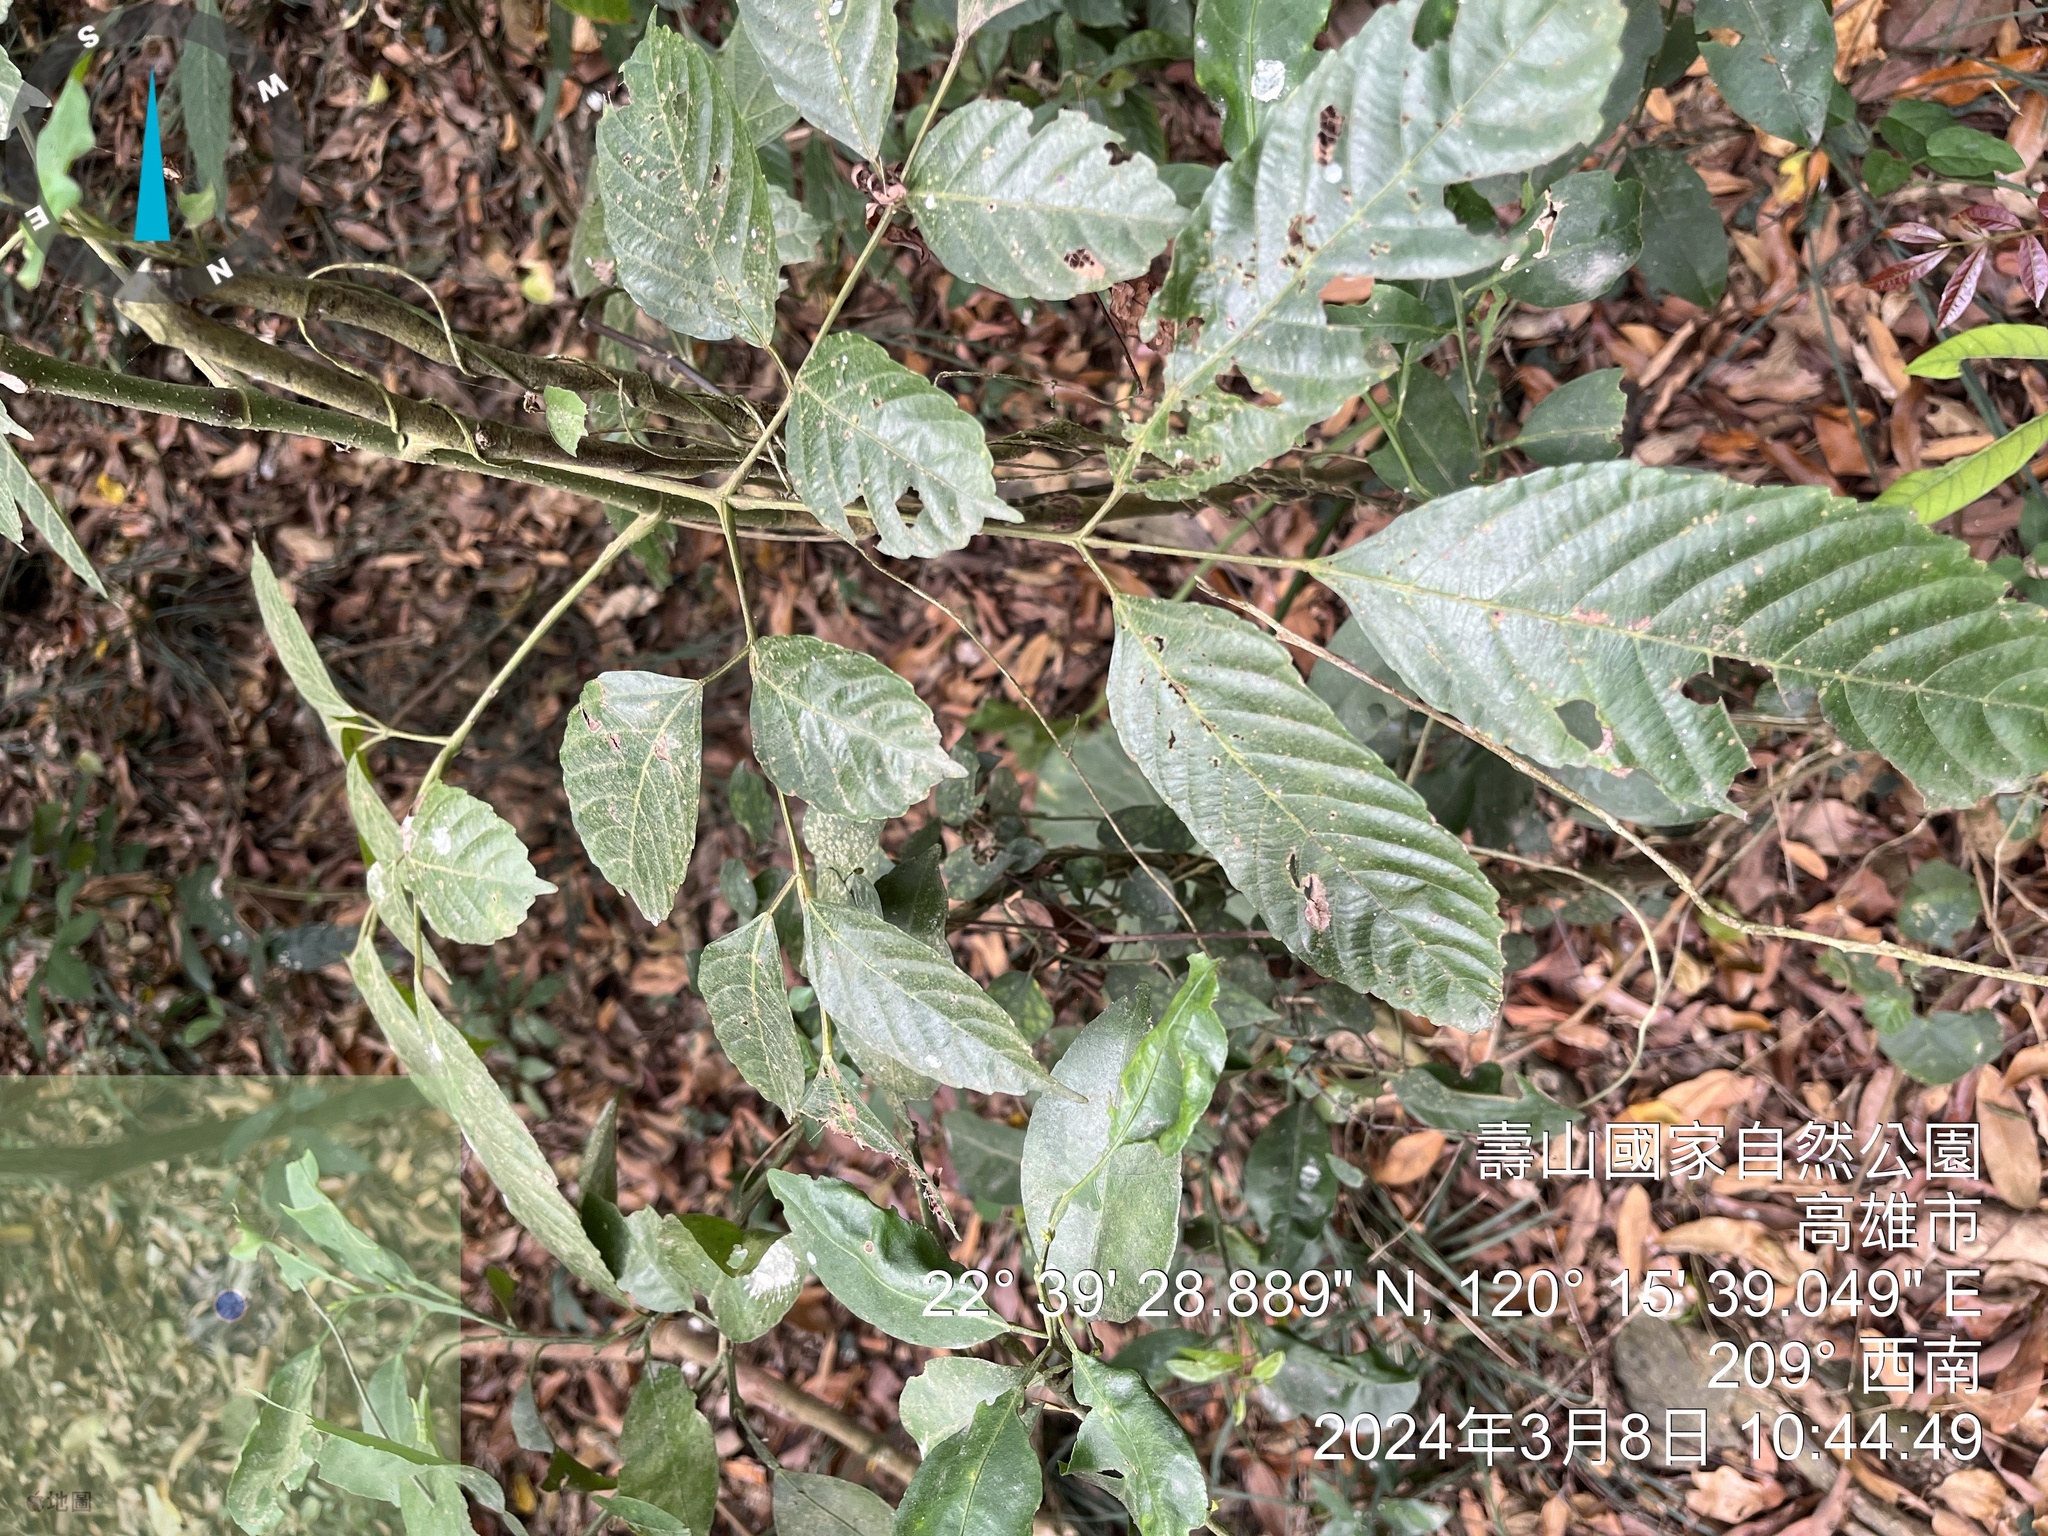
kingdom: Plantae
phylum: Tracheophyta
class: Magnoliopsida
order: Vitales
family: Vitaceae
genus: Leea
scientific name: Leea guineensis
